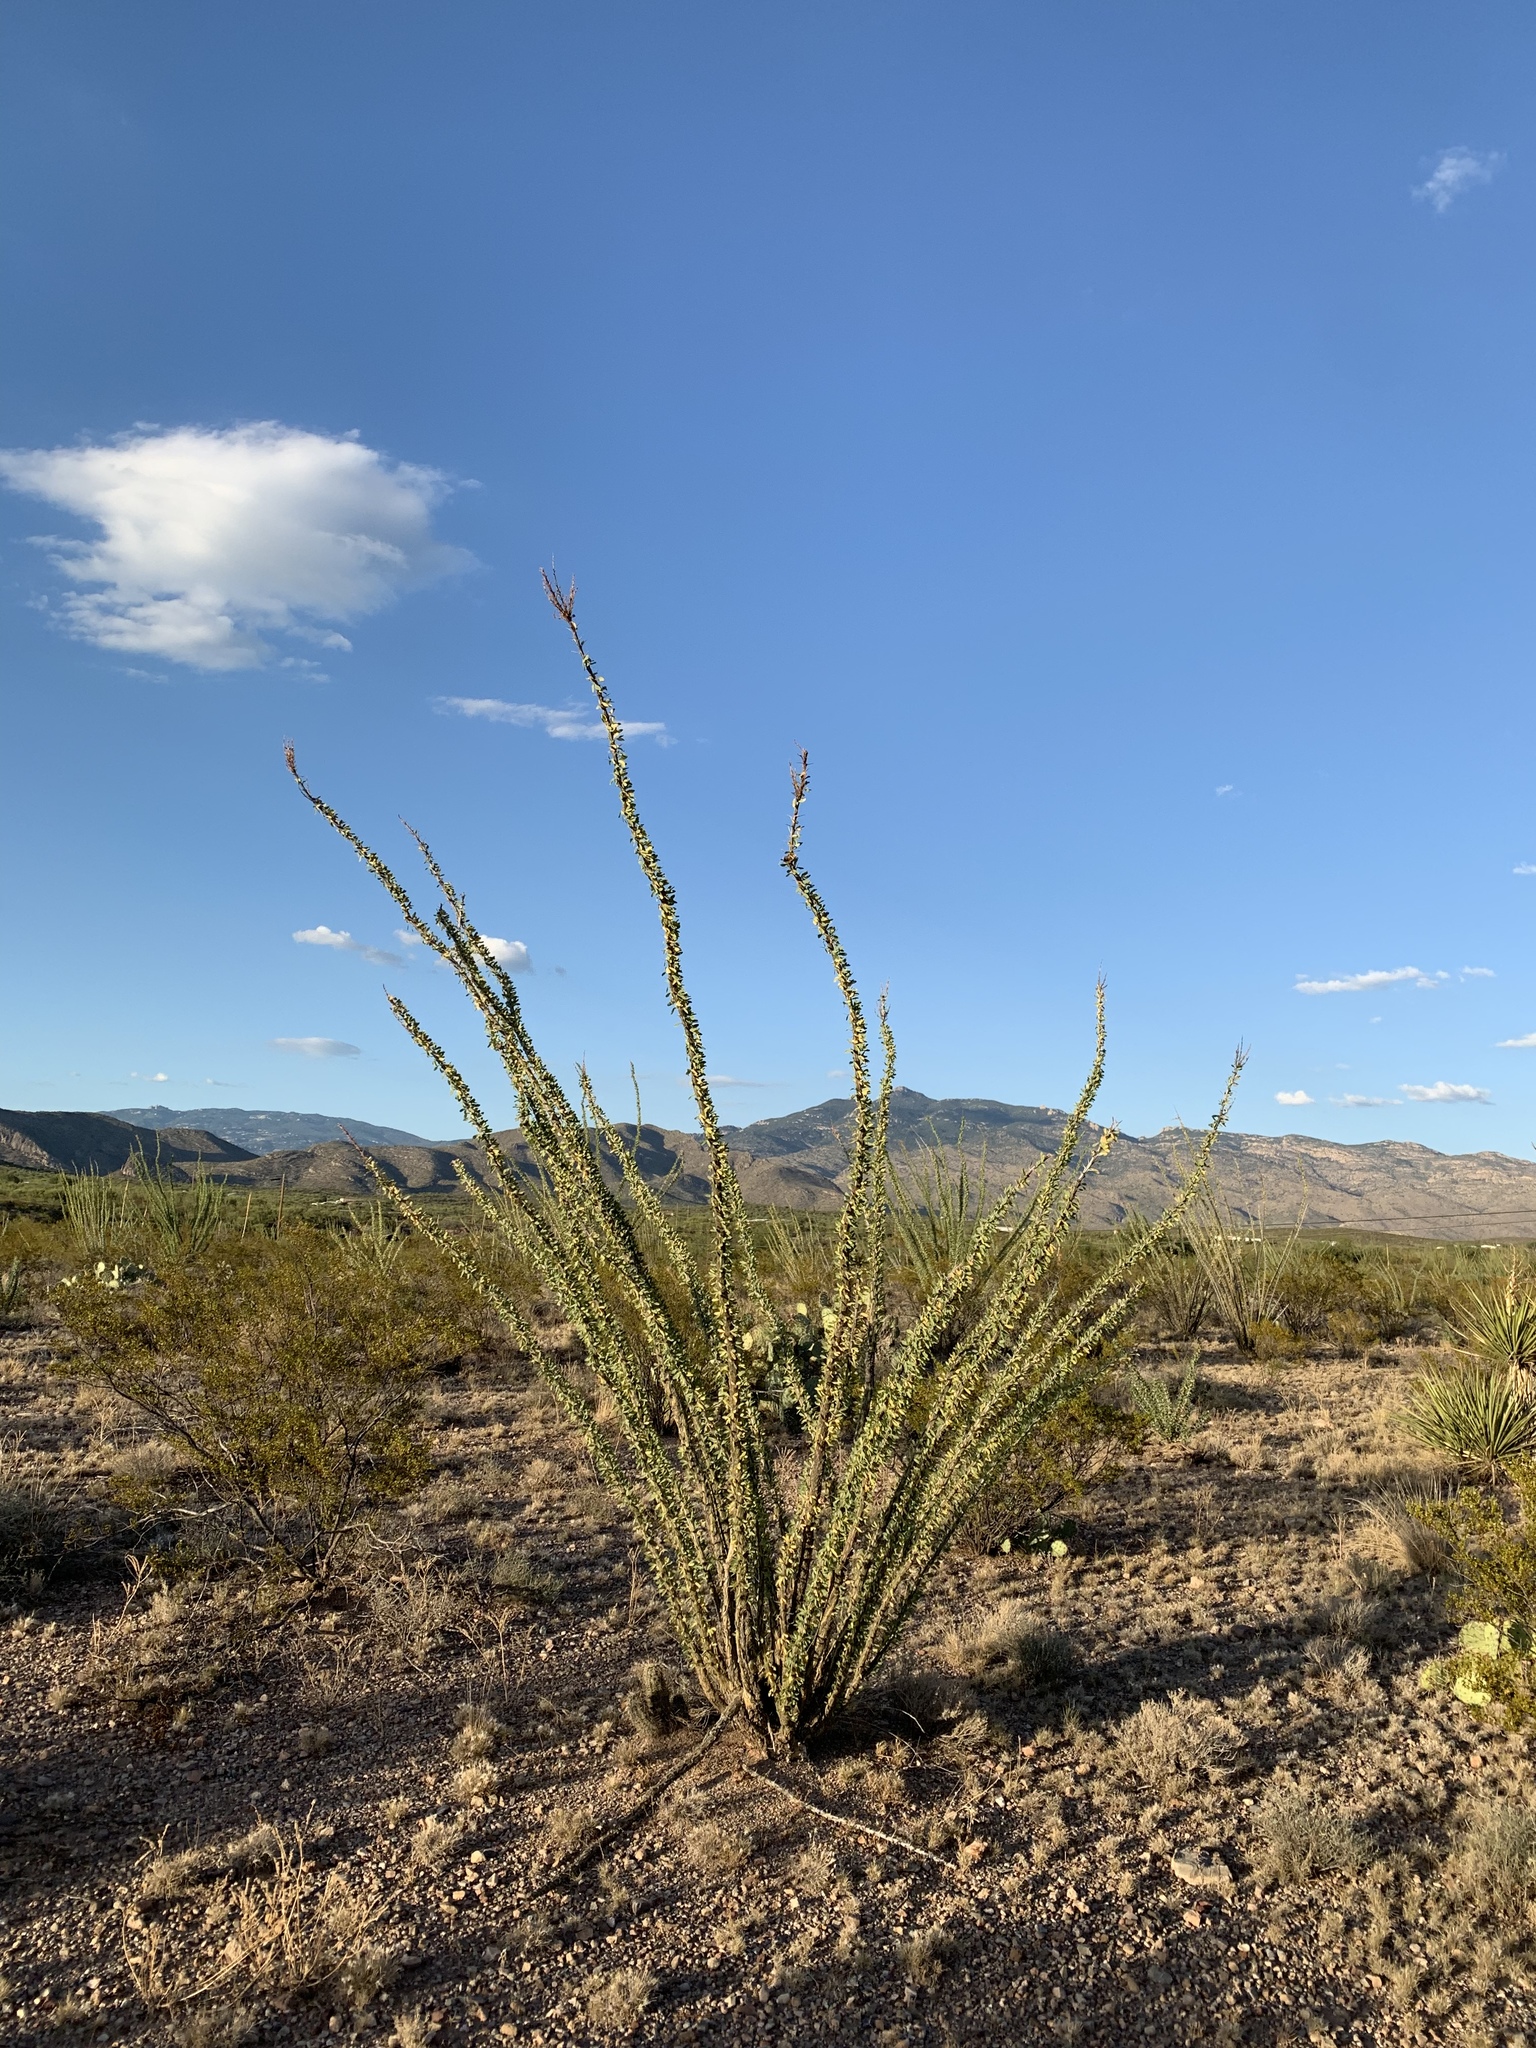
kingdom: Plantae
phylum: Tracheophyta
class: Magnoliopsida
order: Ericales
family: Fouquieriaceae
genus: Fouquieria
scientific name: Fouquieria splendens
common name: Vine-cactus
